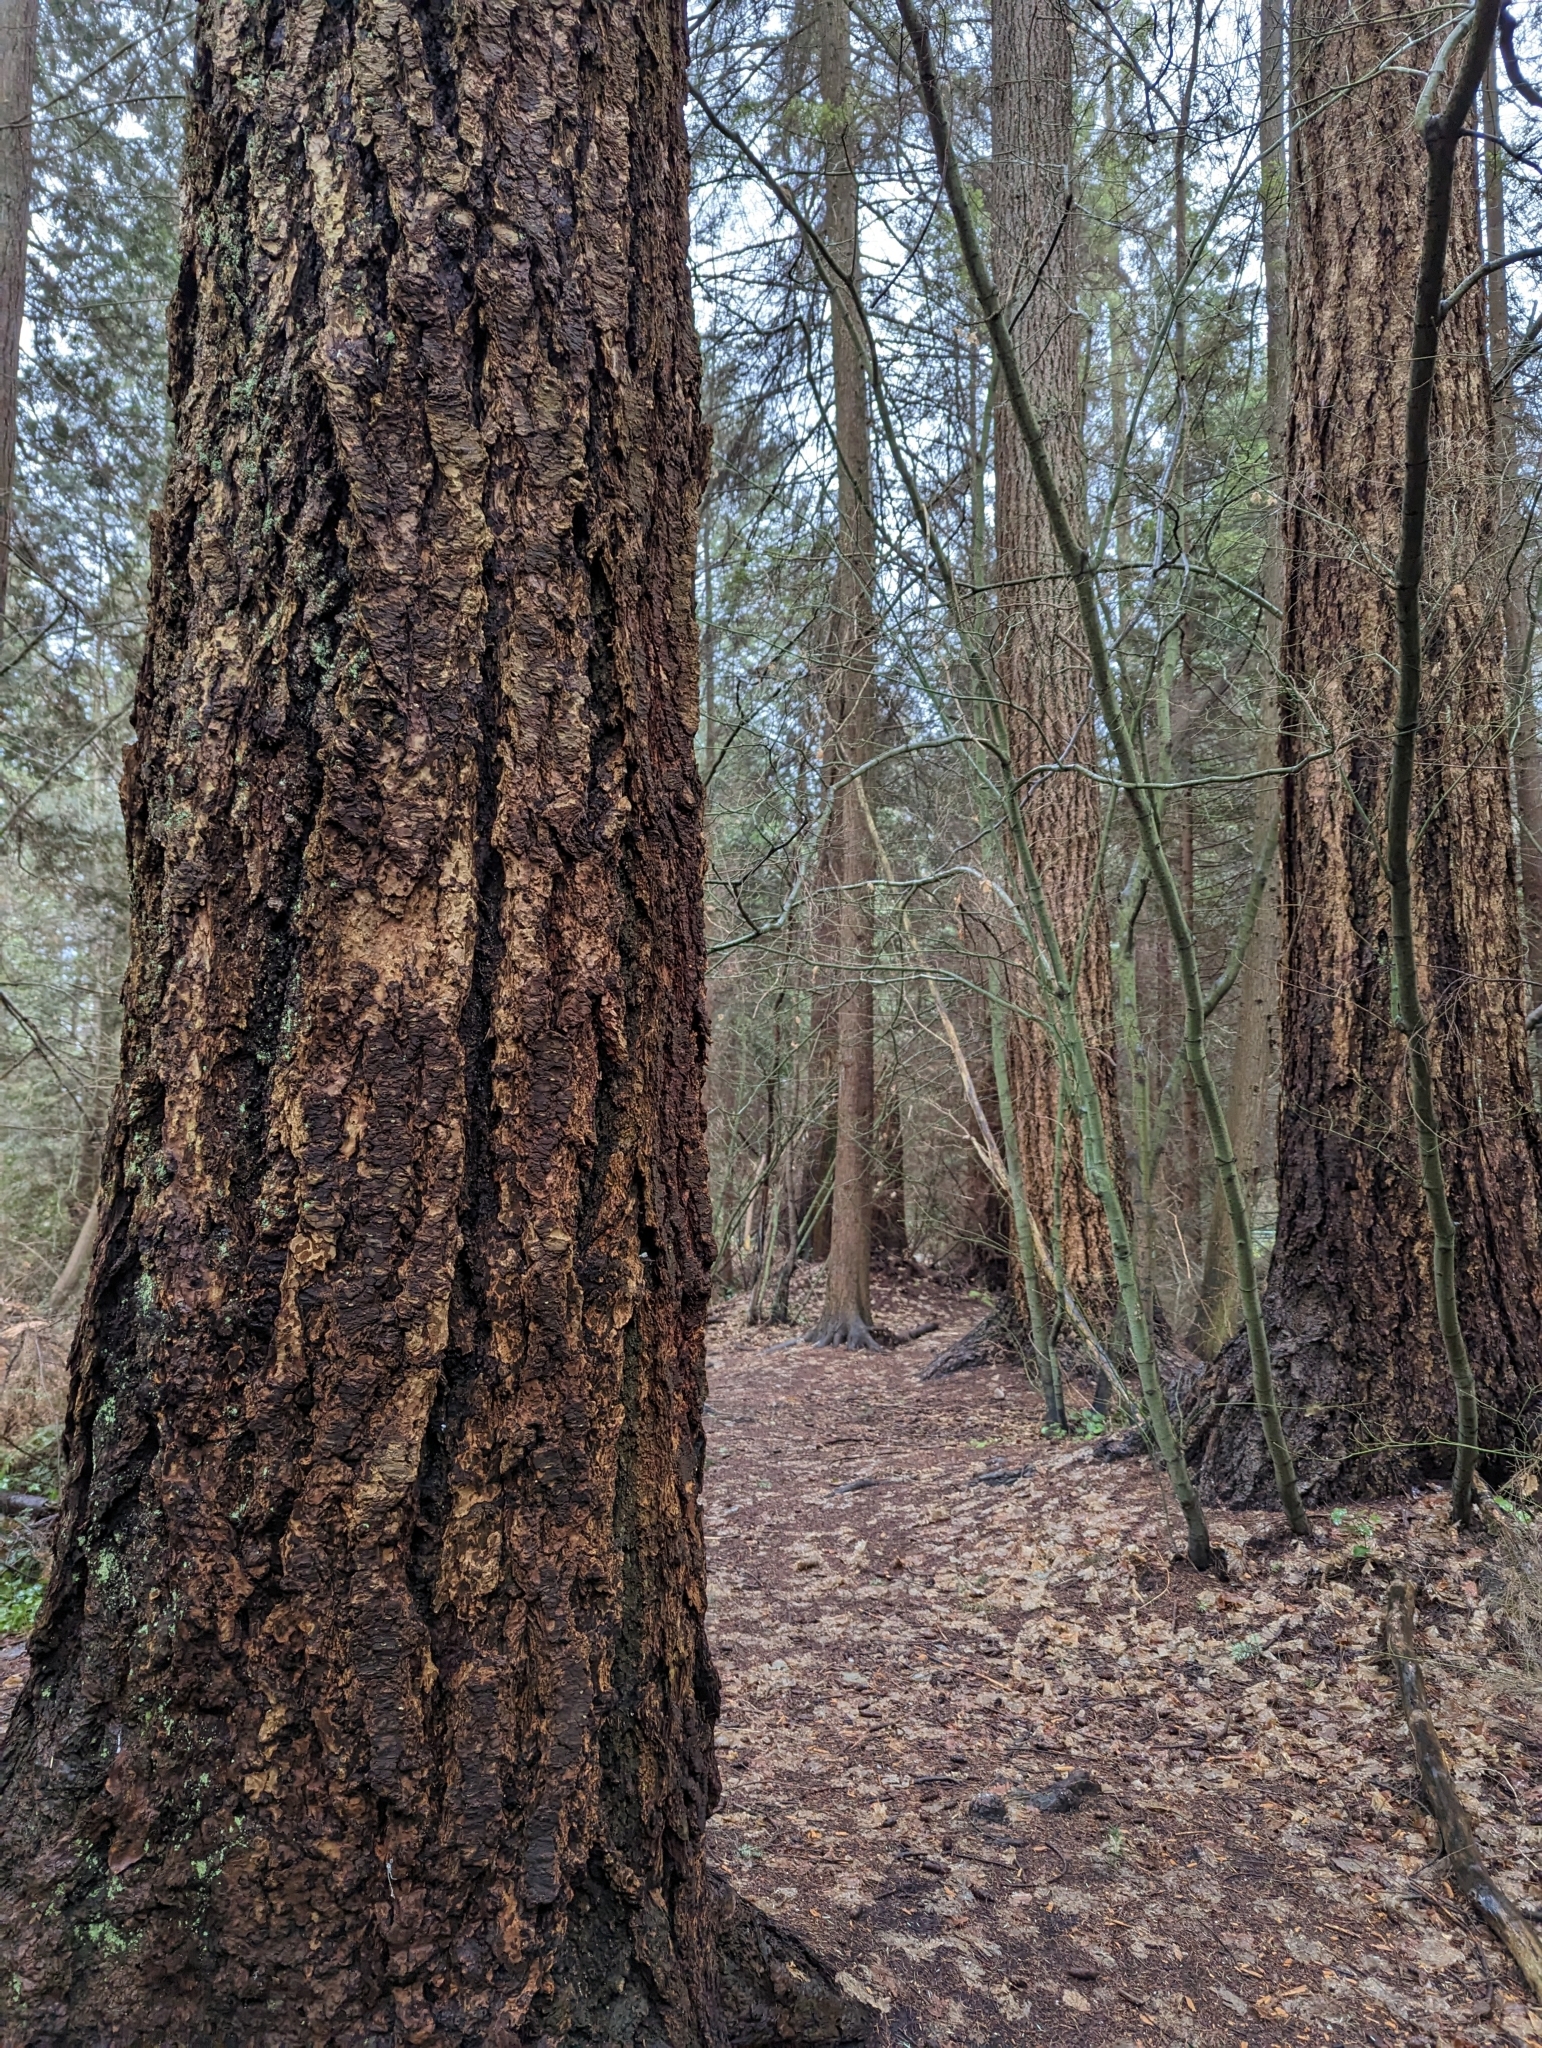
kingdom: Plantae
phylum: Tracheophyta
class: Pinopsida
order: Pinales
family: Pinaceae
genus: Pseudotsuga
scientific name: Pseudotsuga menziesii
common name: Douglas fir
